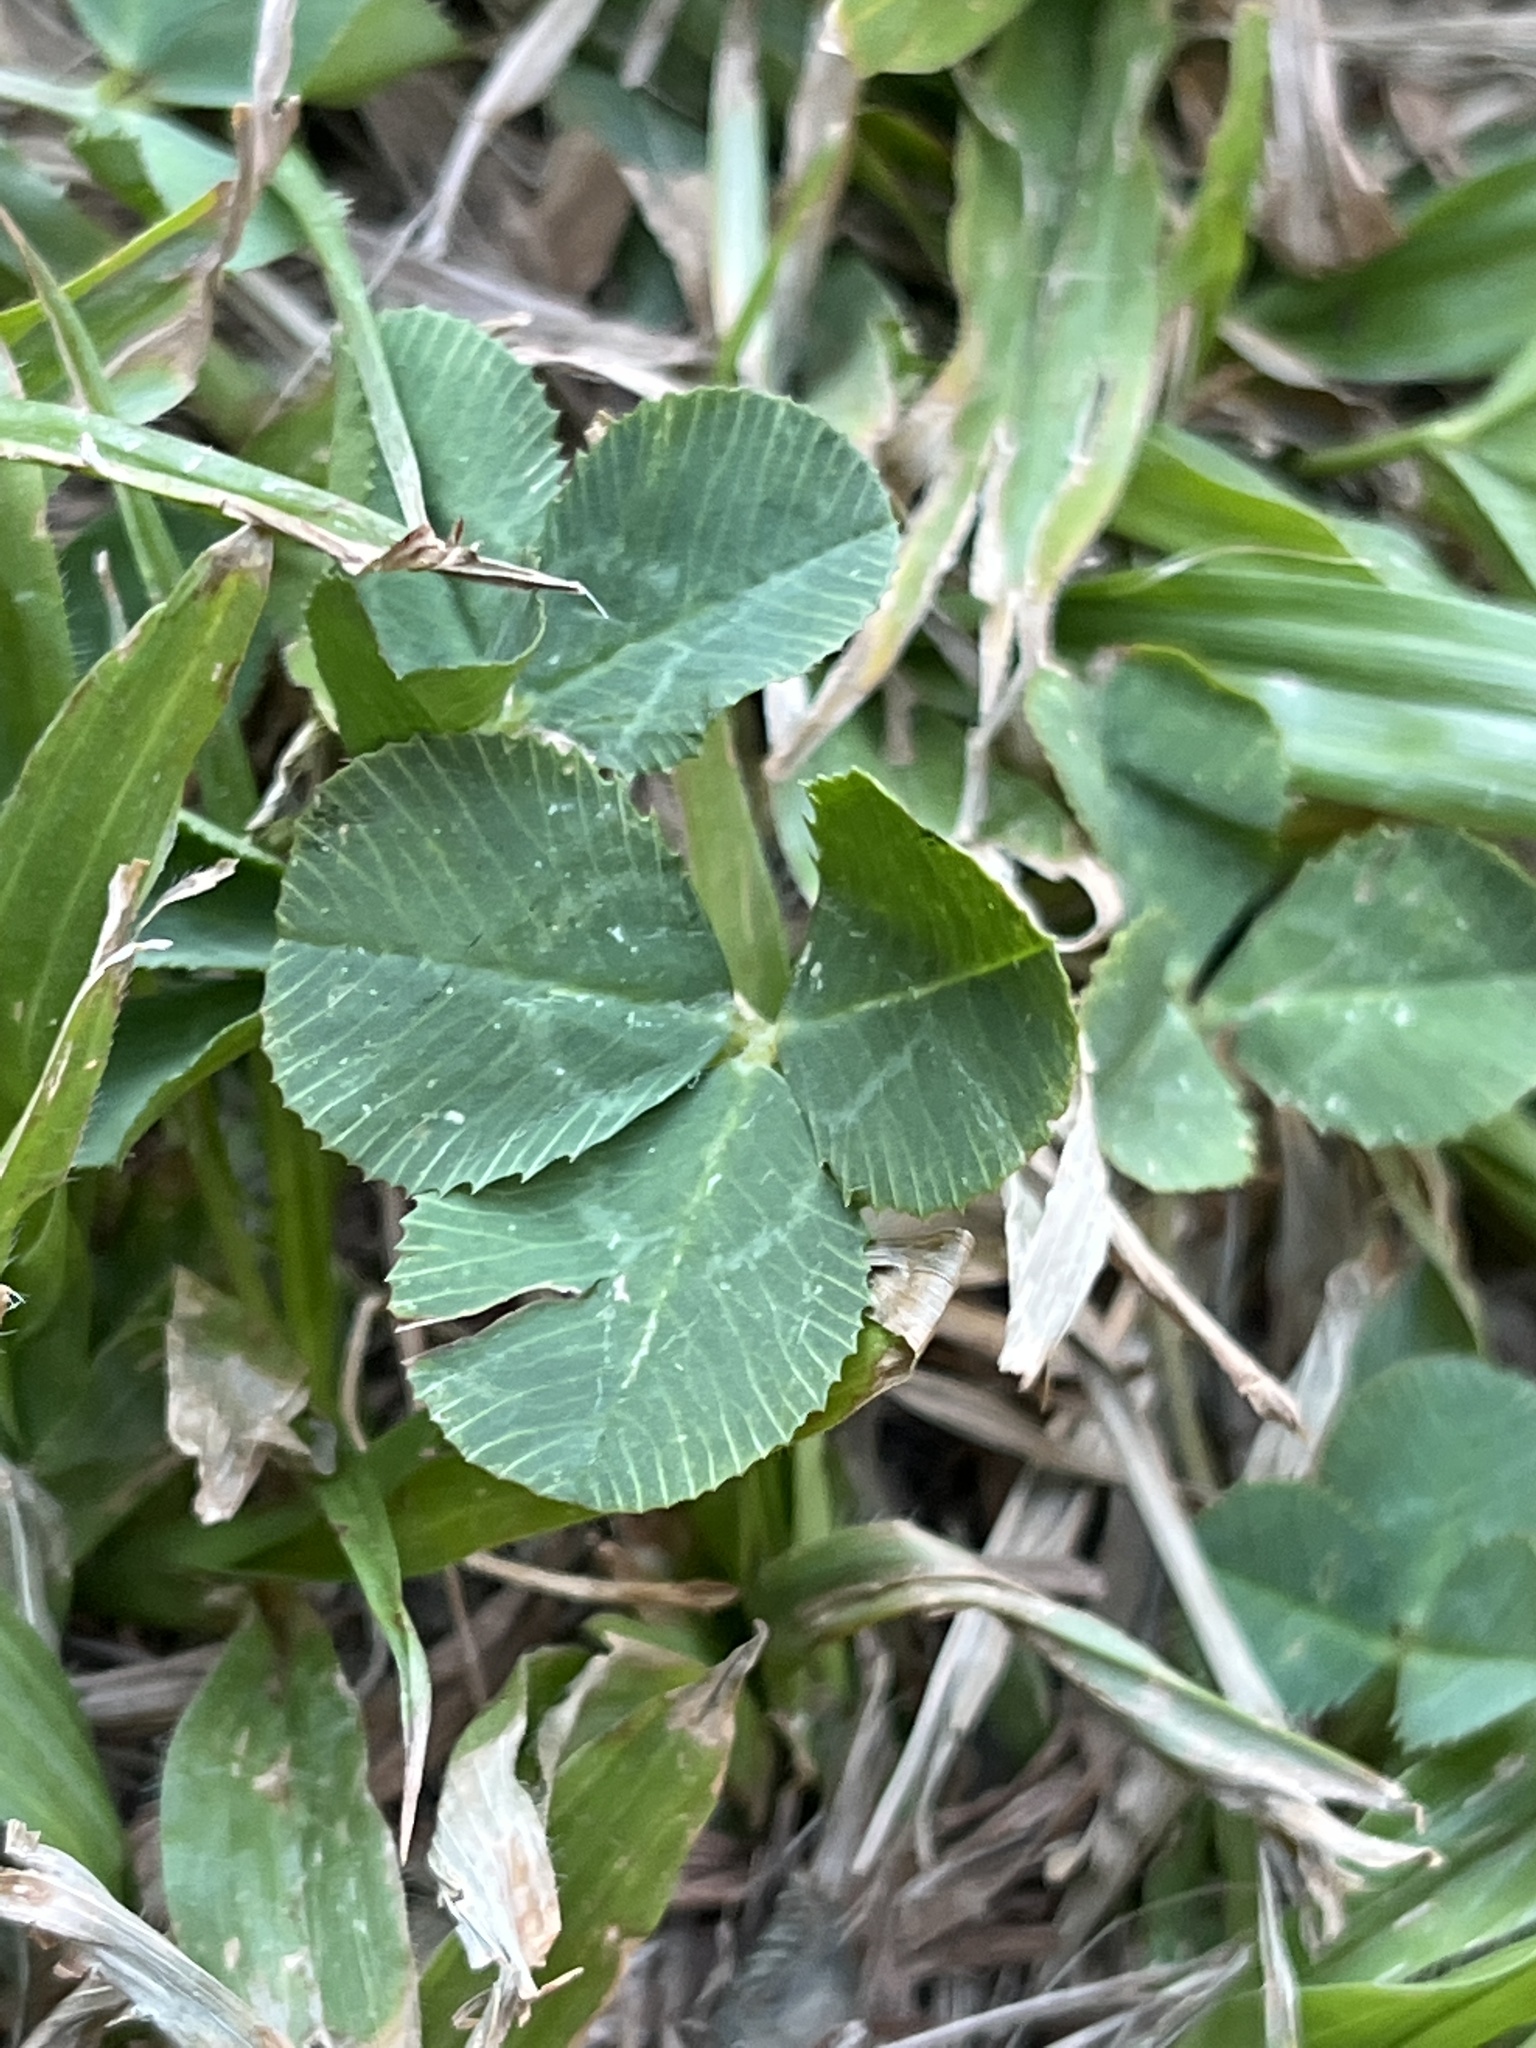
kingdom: Plantae
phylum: Tracheophyta
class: Magnoliopsida
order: Fabales
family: Fabaceae
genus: Trifolium
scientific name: Trifolium repens
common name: White clover
